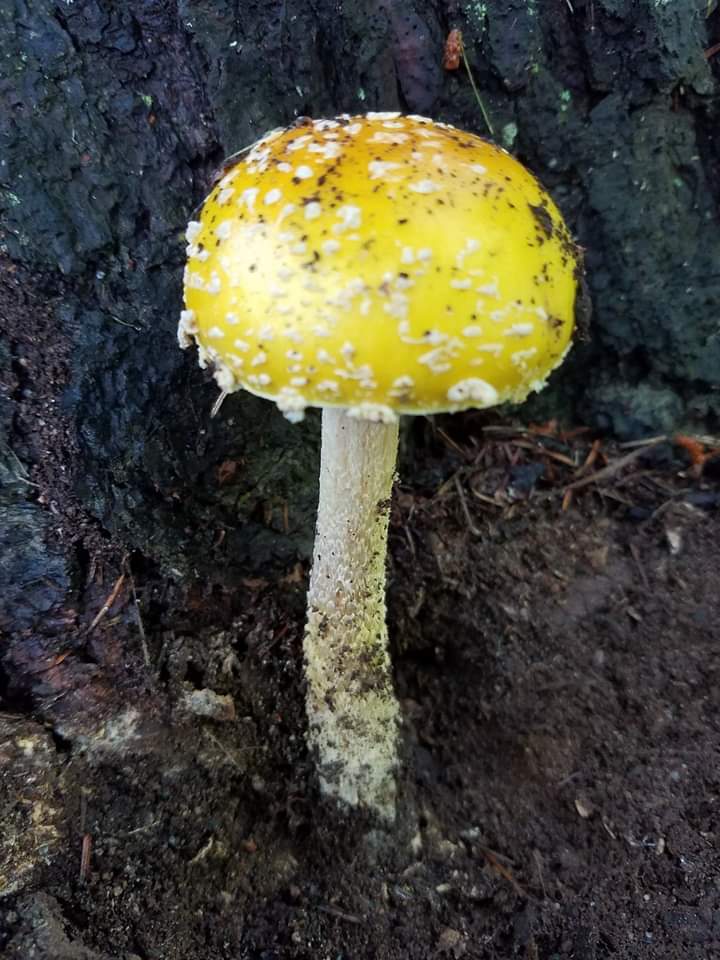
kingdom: Fungi
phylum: Basidiomycota
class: Agaricomycetes
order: Agaricales
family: Amanitaceae
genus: Amanita
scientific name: Amanita muscaria
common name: Fly agaric
